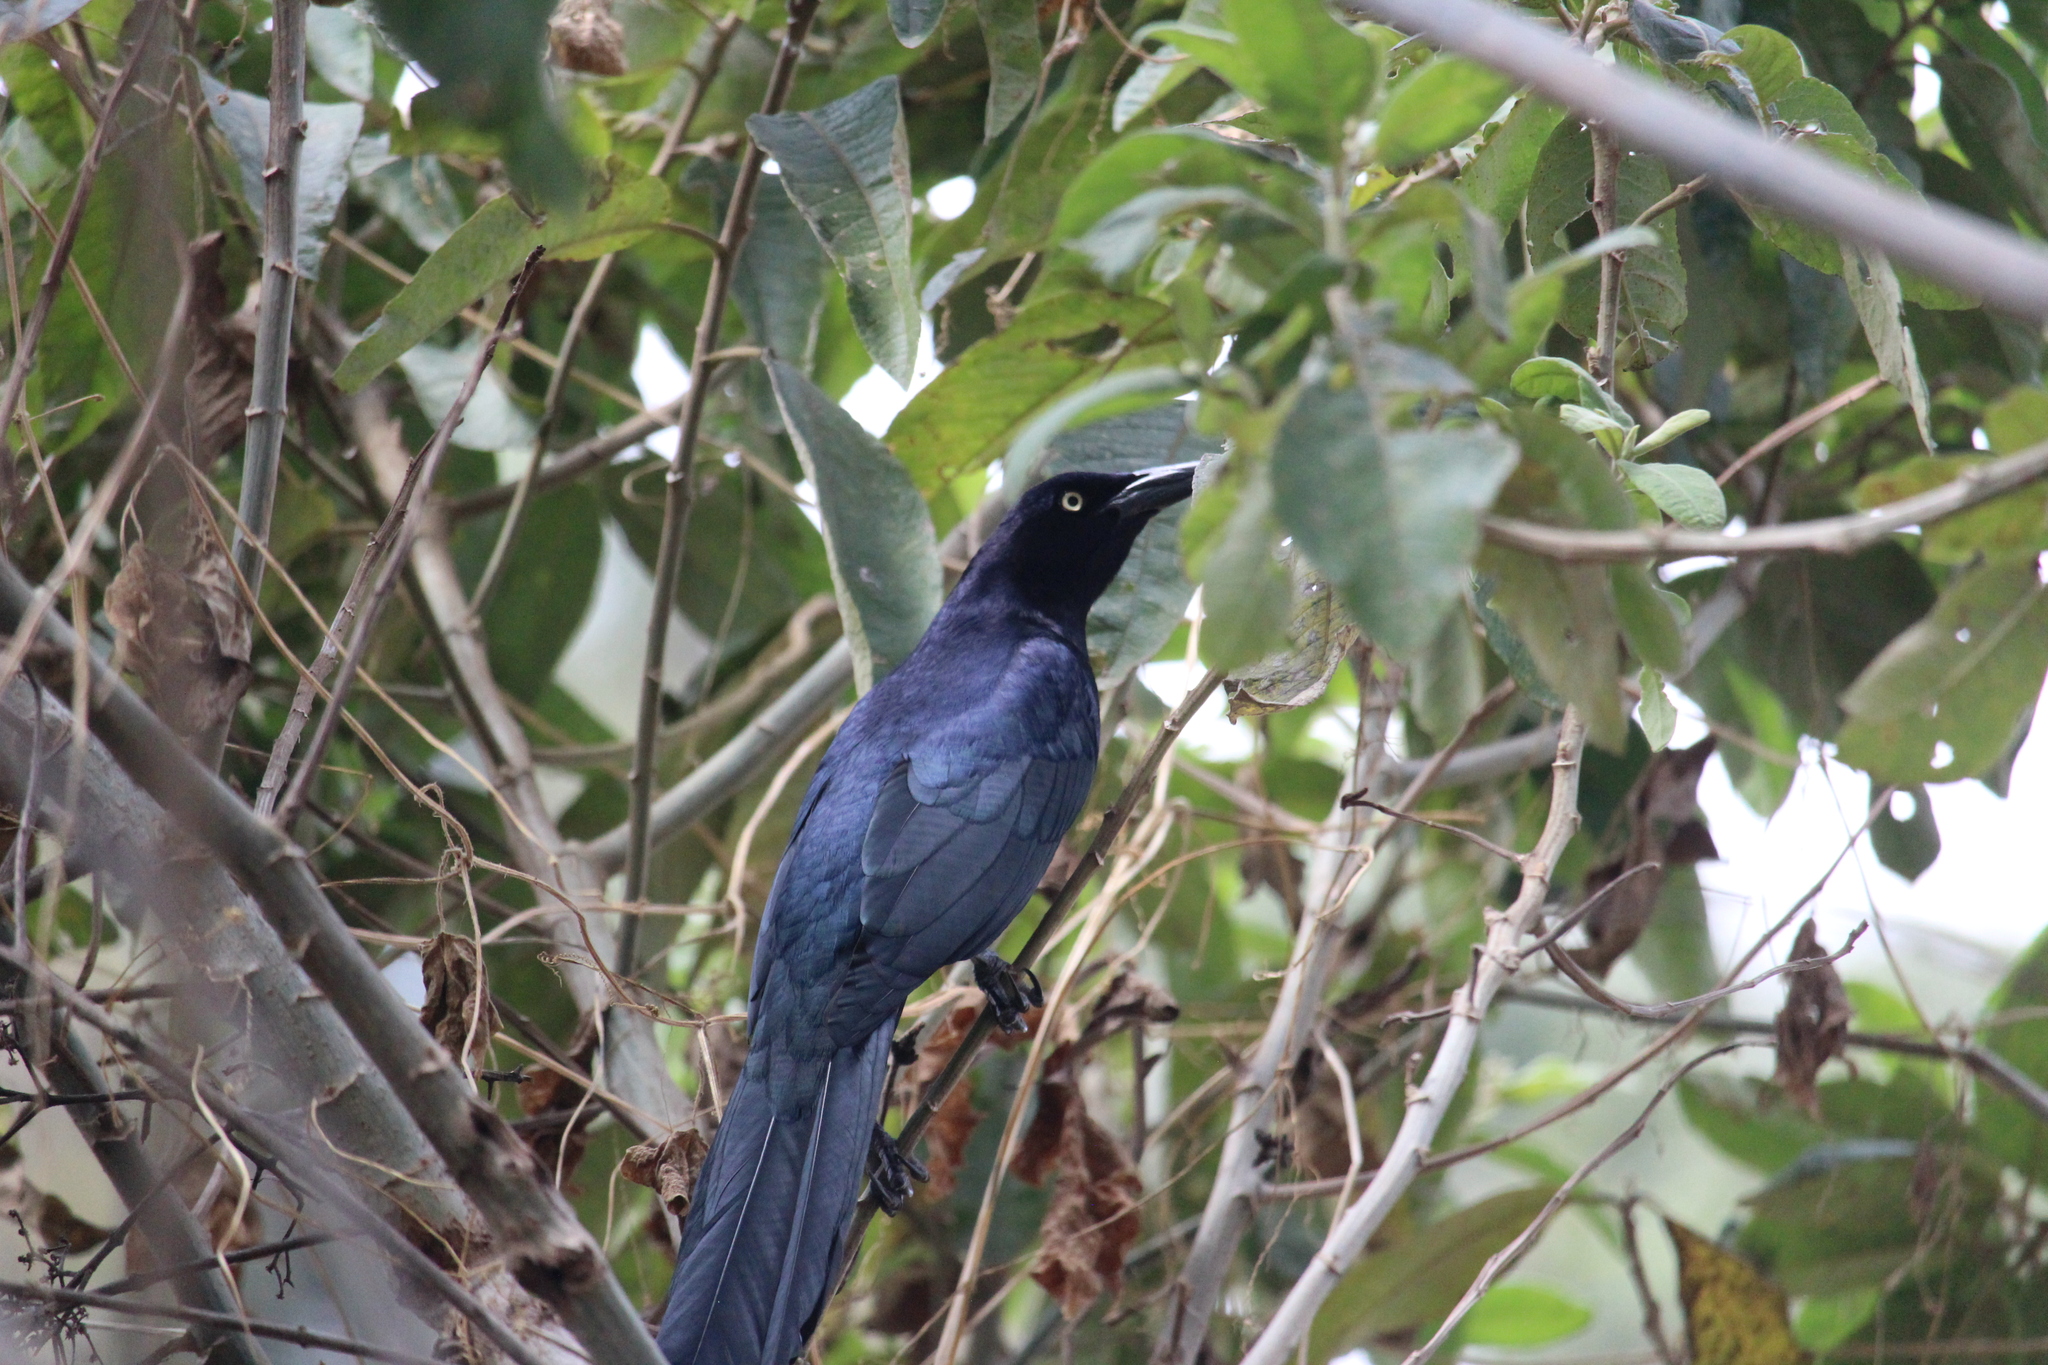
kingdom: Animalia
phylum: Chordata
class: Aves
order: Passeriformes
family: Icteridae
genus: Quiscalus
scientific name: Quiscalus mexicanus
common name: Great-tailed grackle
